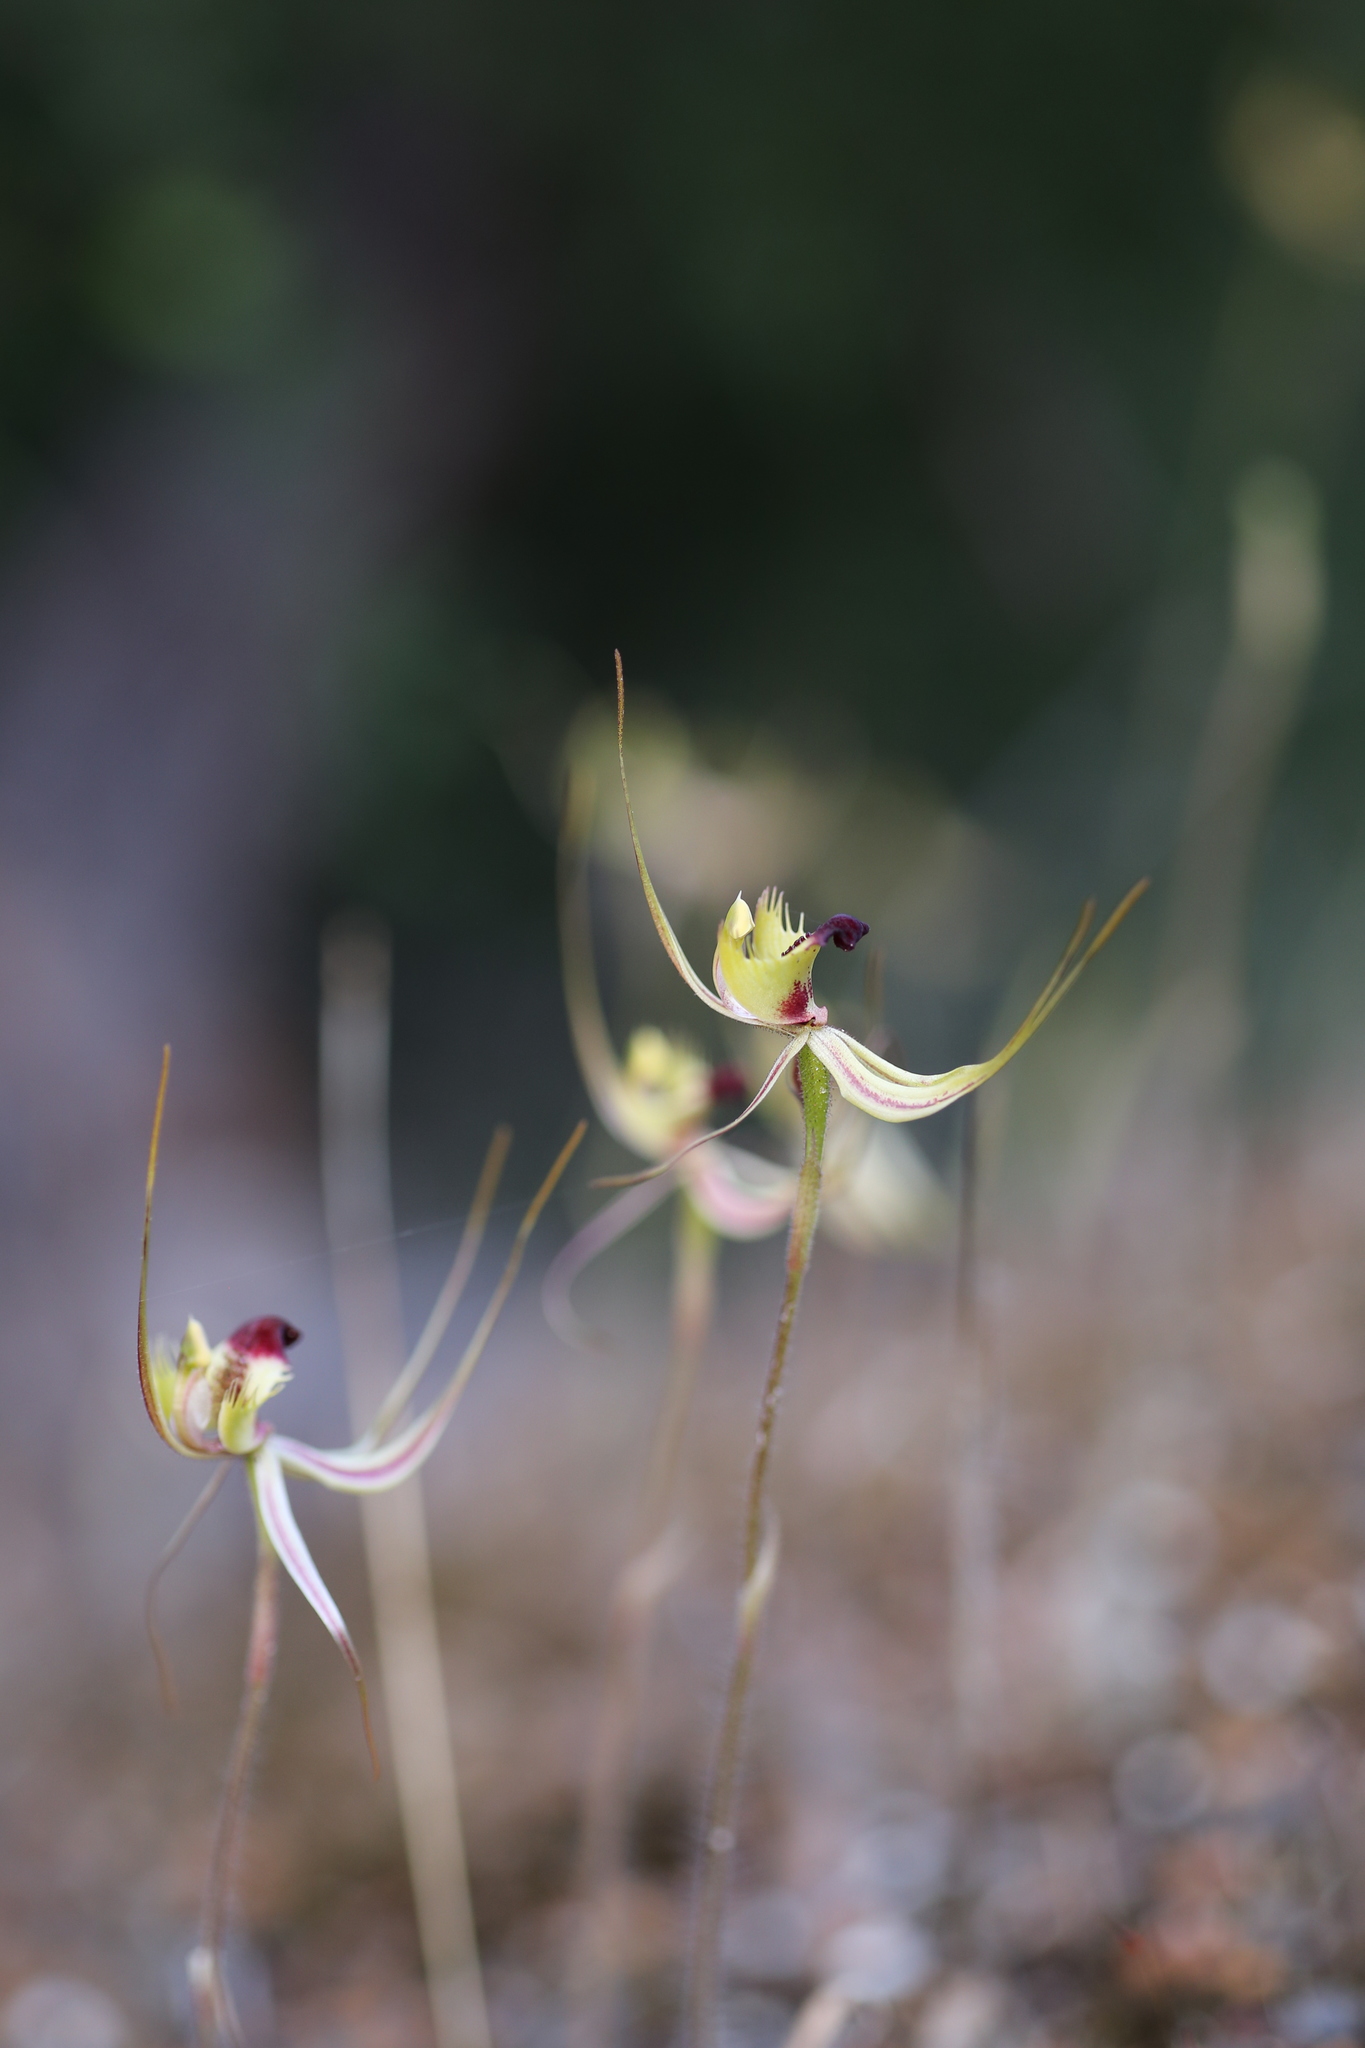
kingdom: Plantae
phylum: Tracheophyta
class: Liliopsida
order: Asparagales
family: Orchidaceae
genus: Caladenia
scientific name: Caladenia attingens
